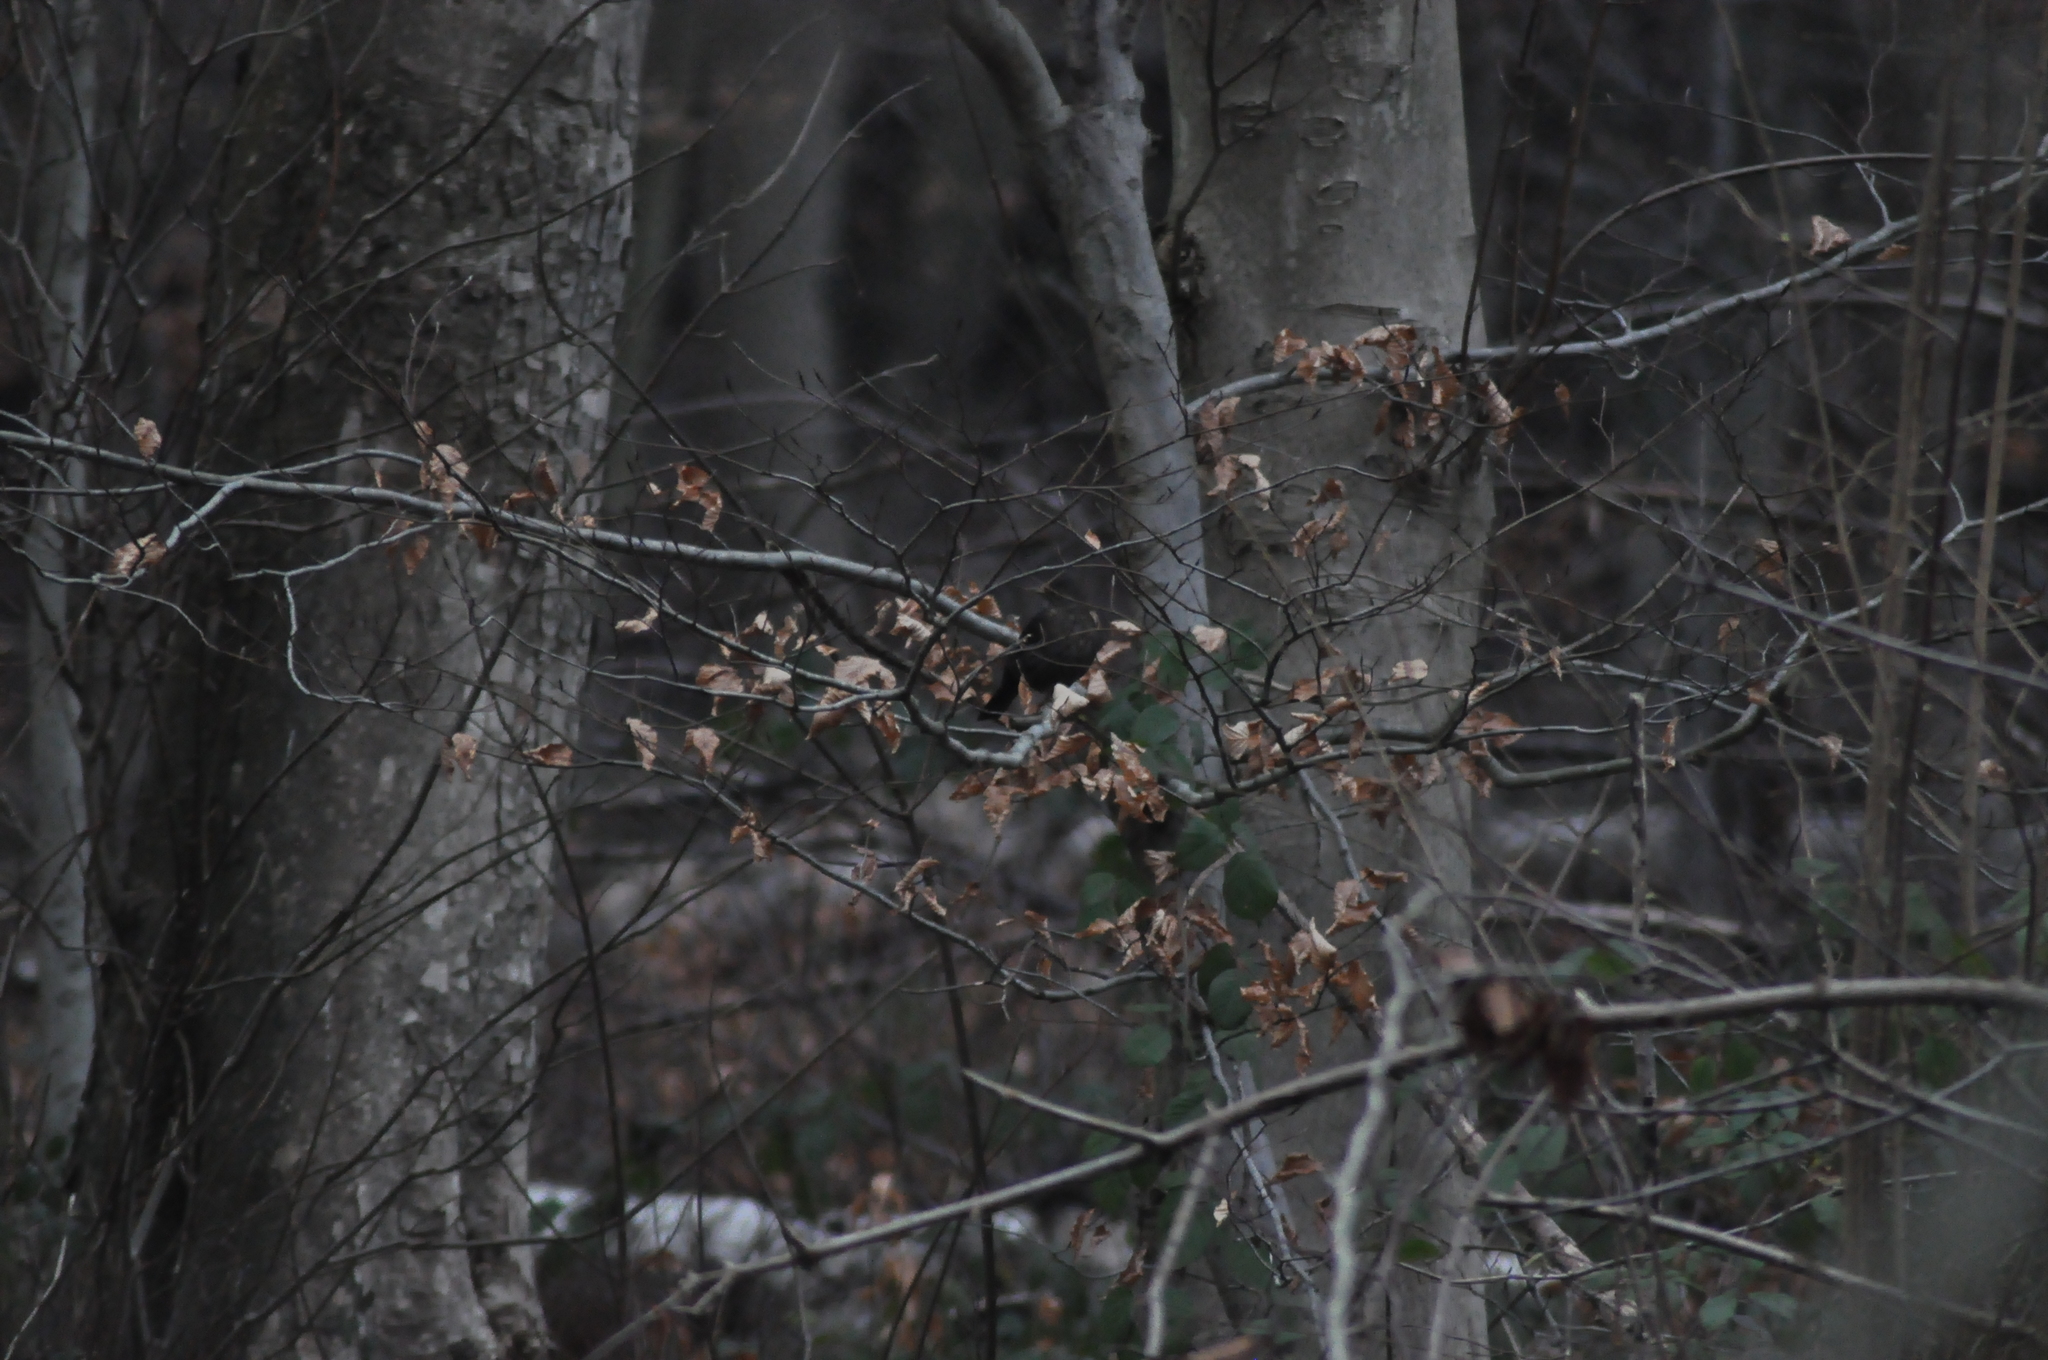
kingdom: Animalia
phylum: Chordata
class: Aves
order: Passeriformes
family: Turdidae
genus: Turdus
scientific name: Turdus merula
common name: Common blackbird
